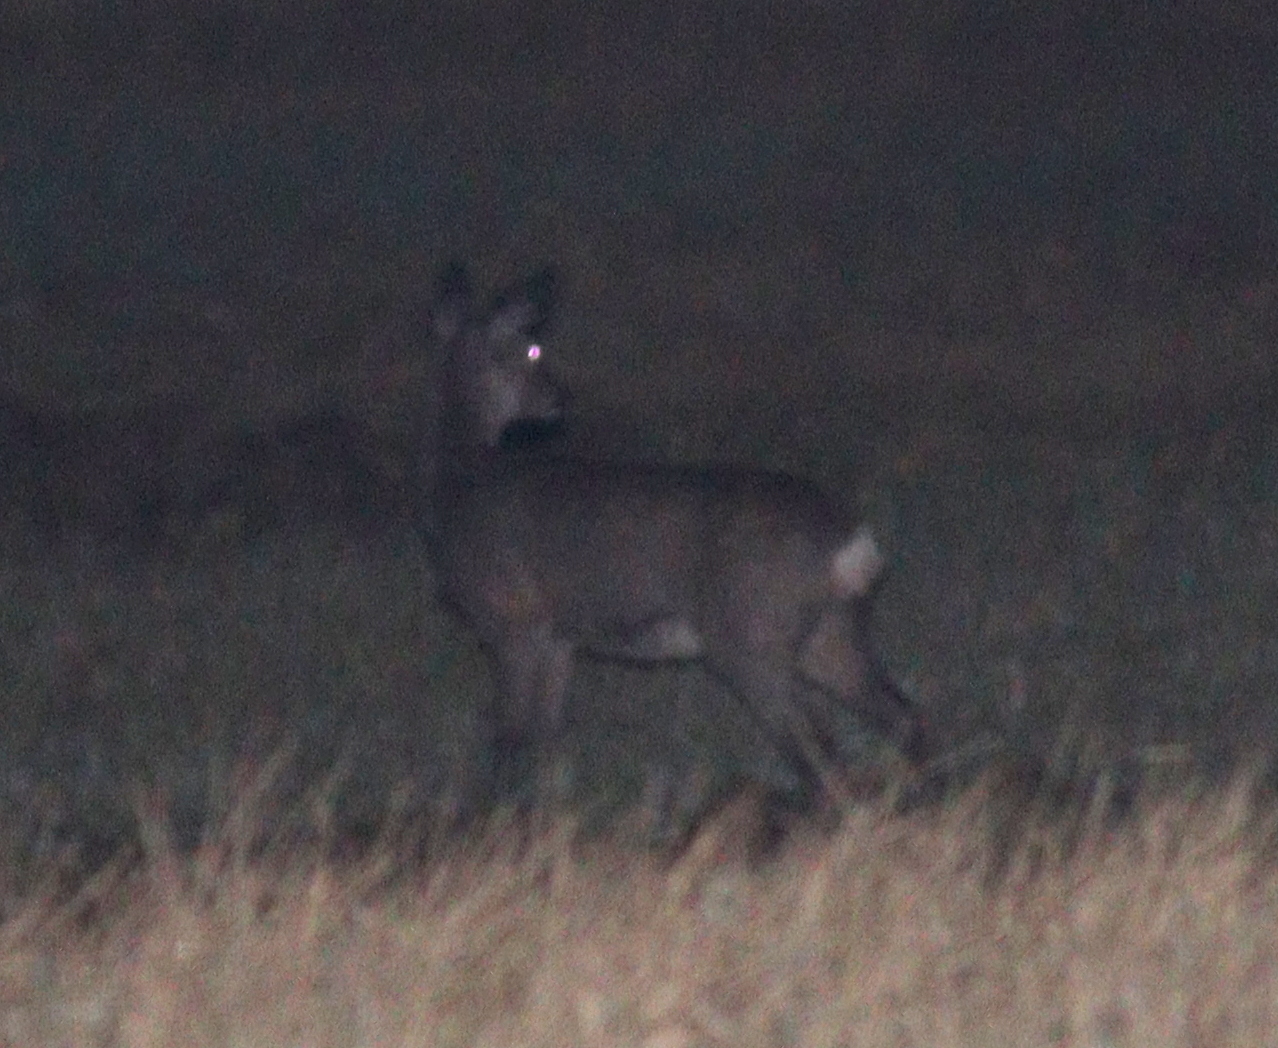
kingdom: Animalia
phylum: Chordata
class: Mammalia
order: Artiodactyla
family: Cervidae
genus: Capreolus
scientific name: Capreolus capreolus
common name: Western roe deer
